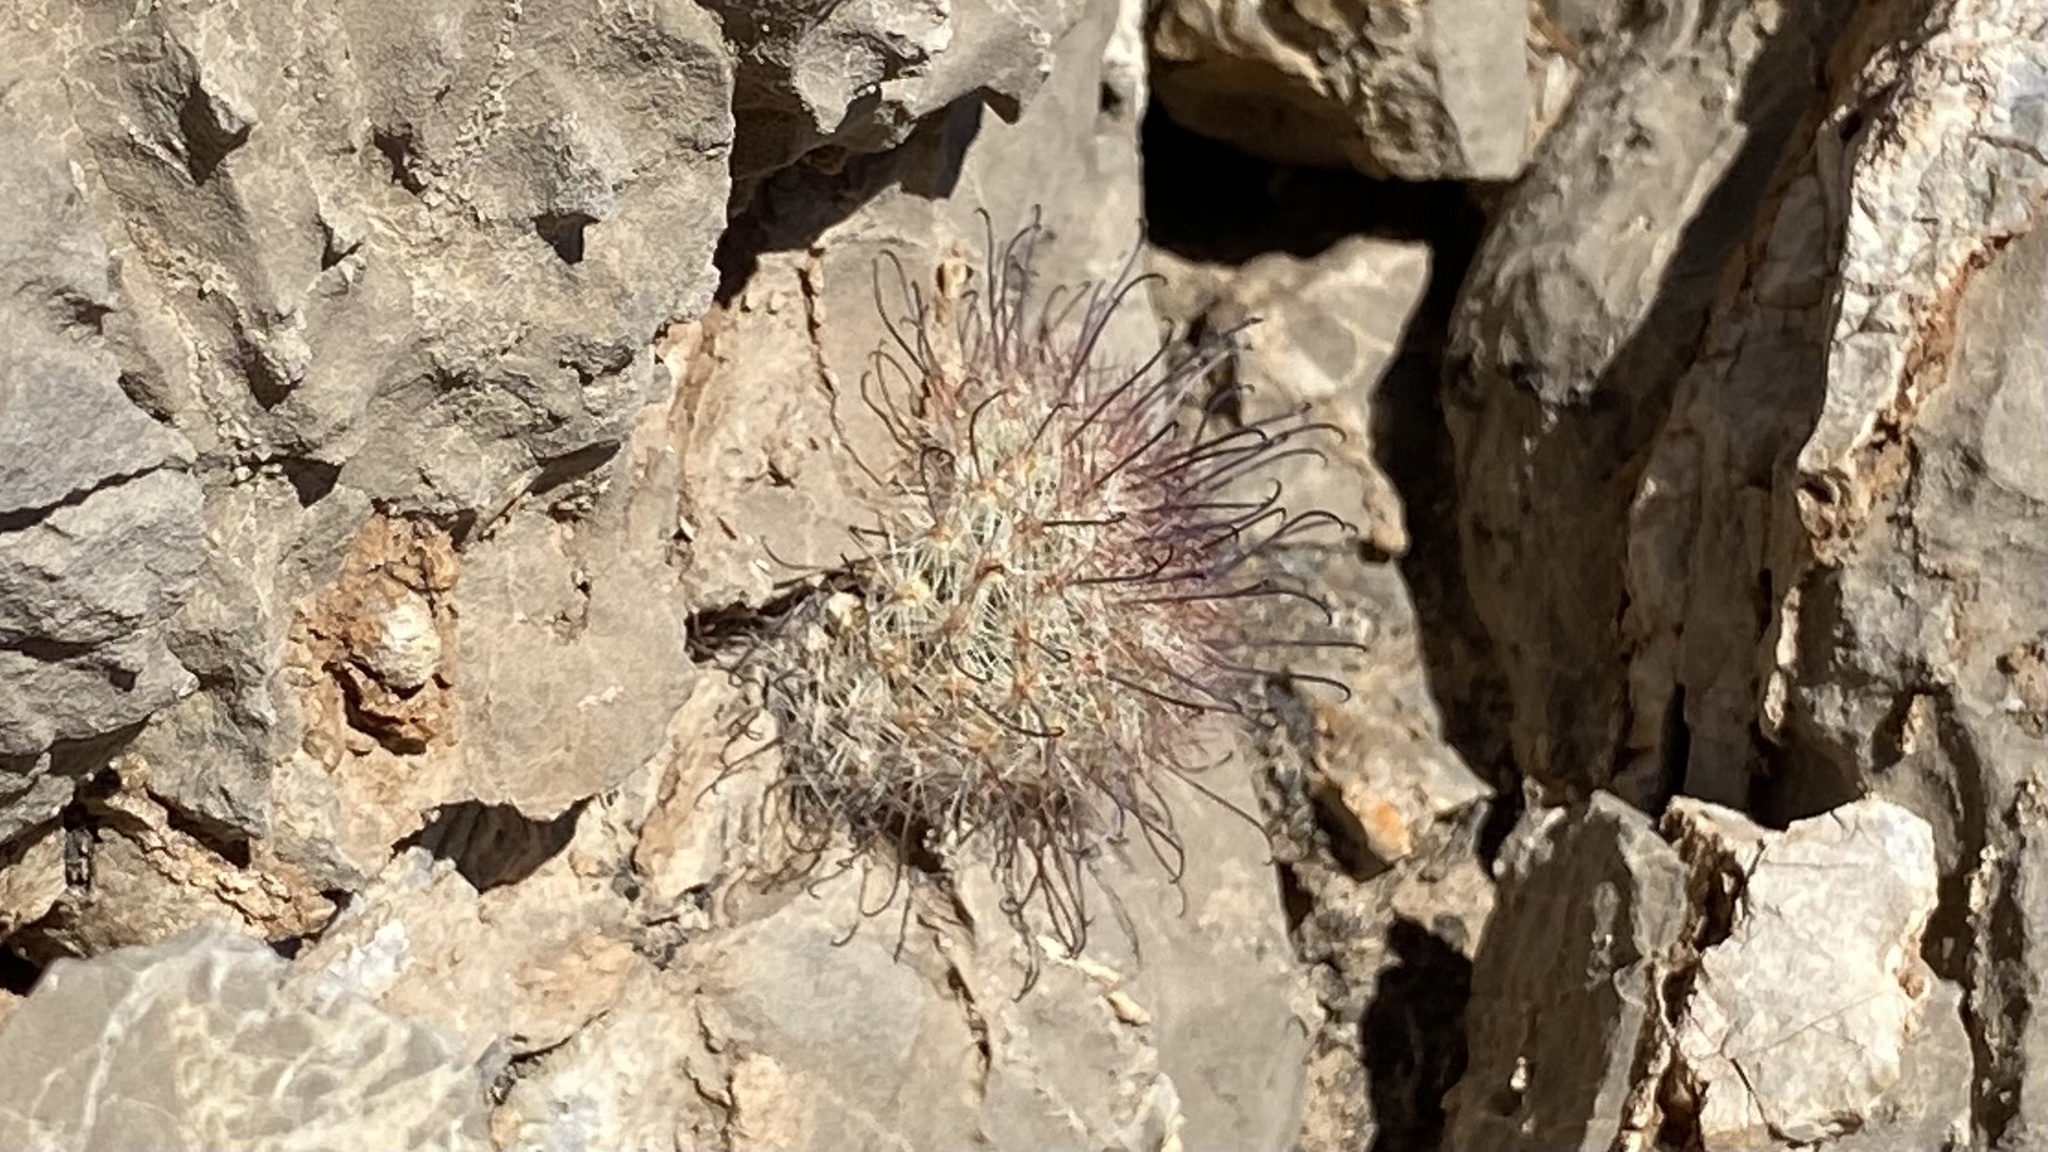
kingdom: Plantae
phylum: Tracheophyta
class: Magnoliopsida
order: Caryophyllales
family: Cactaceae
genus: Cochemiea
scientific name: Cochemiea grahamii
